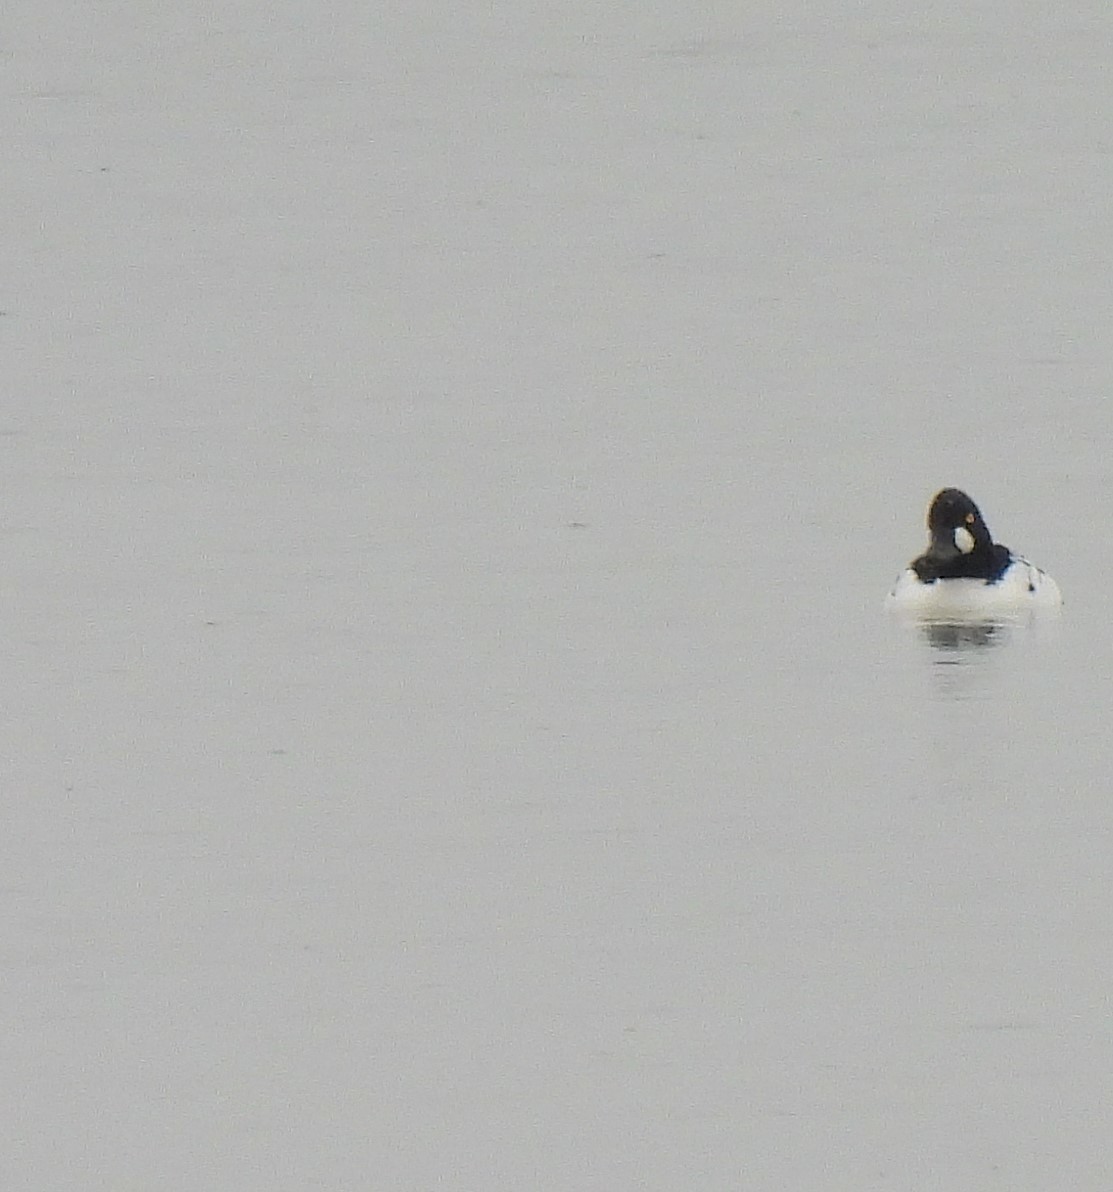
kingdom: Animalia
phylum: Chordata
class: Aves
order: Anseriformes
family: Anatidae
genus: Bucephala
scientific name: Bucephala clangula
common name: Common goldeneye
